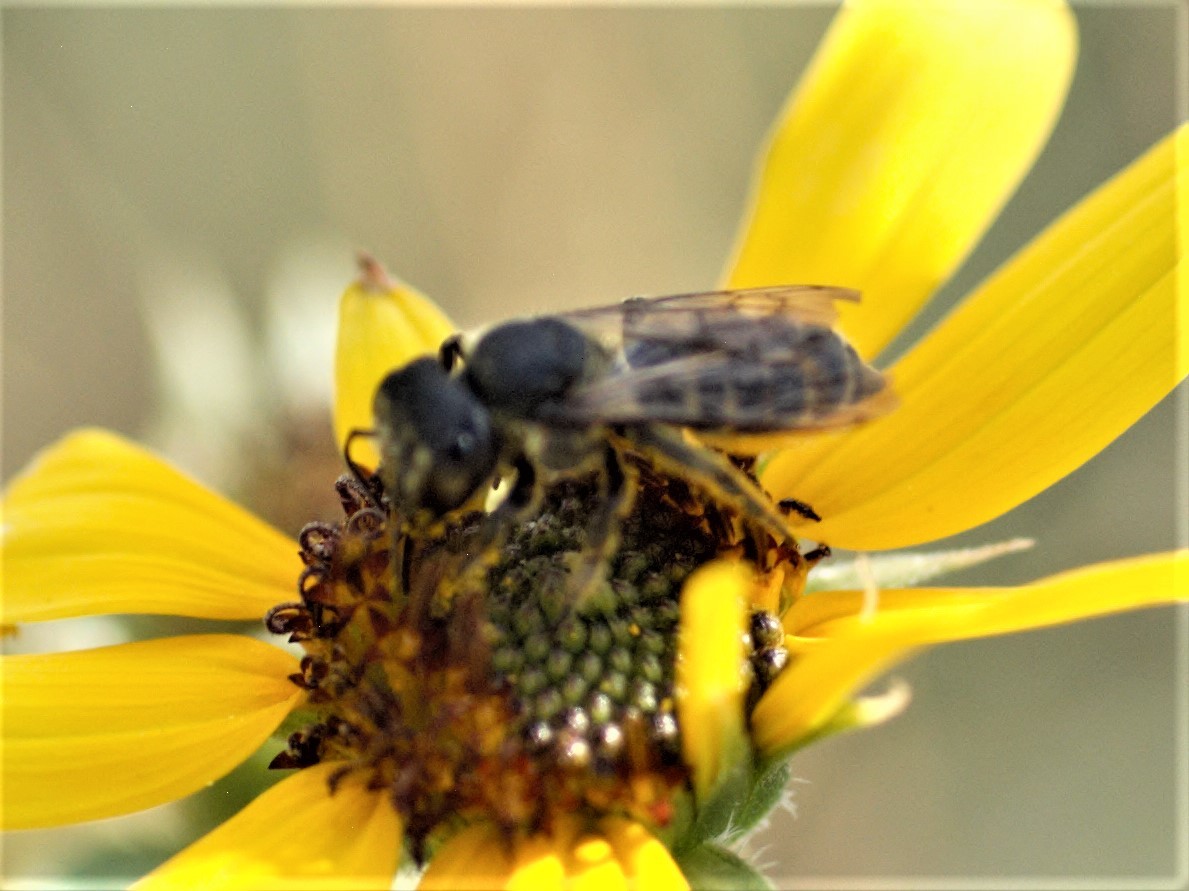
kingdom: Animalia
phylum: Arthropoda
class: Insecta
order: Hymenoptera
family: Megachilidae
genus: Megachile
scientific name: Megachile
